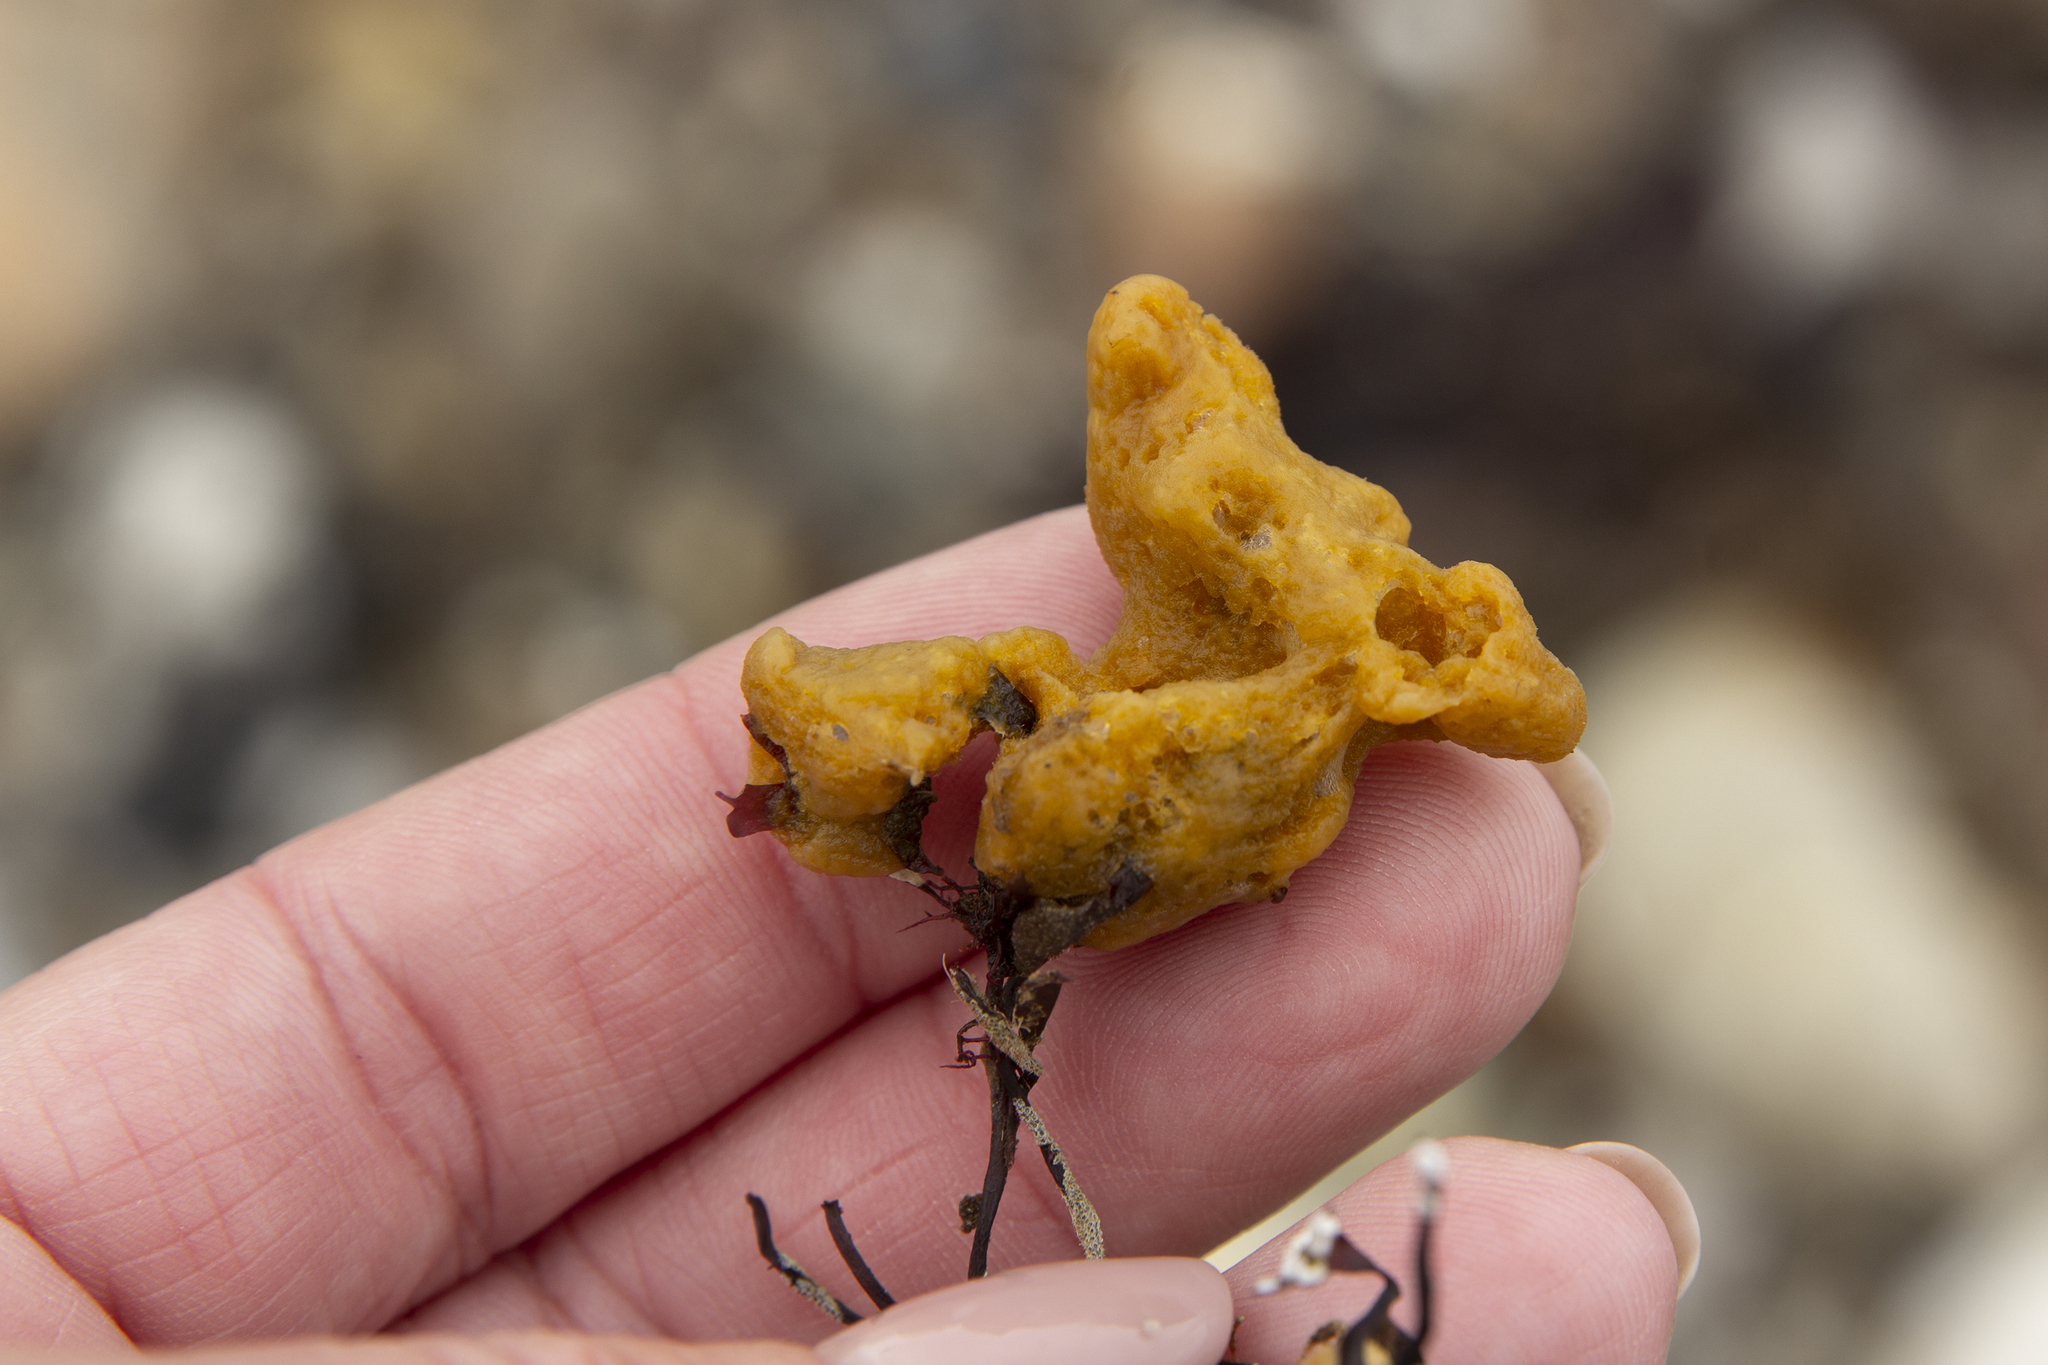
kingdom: Animalia
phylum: Porifera
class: Demospongiae
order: Suberitida
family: Halichondriidae
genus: Halichondria
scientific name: Halichondria panicea
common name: Breadcrumb sponge
